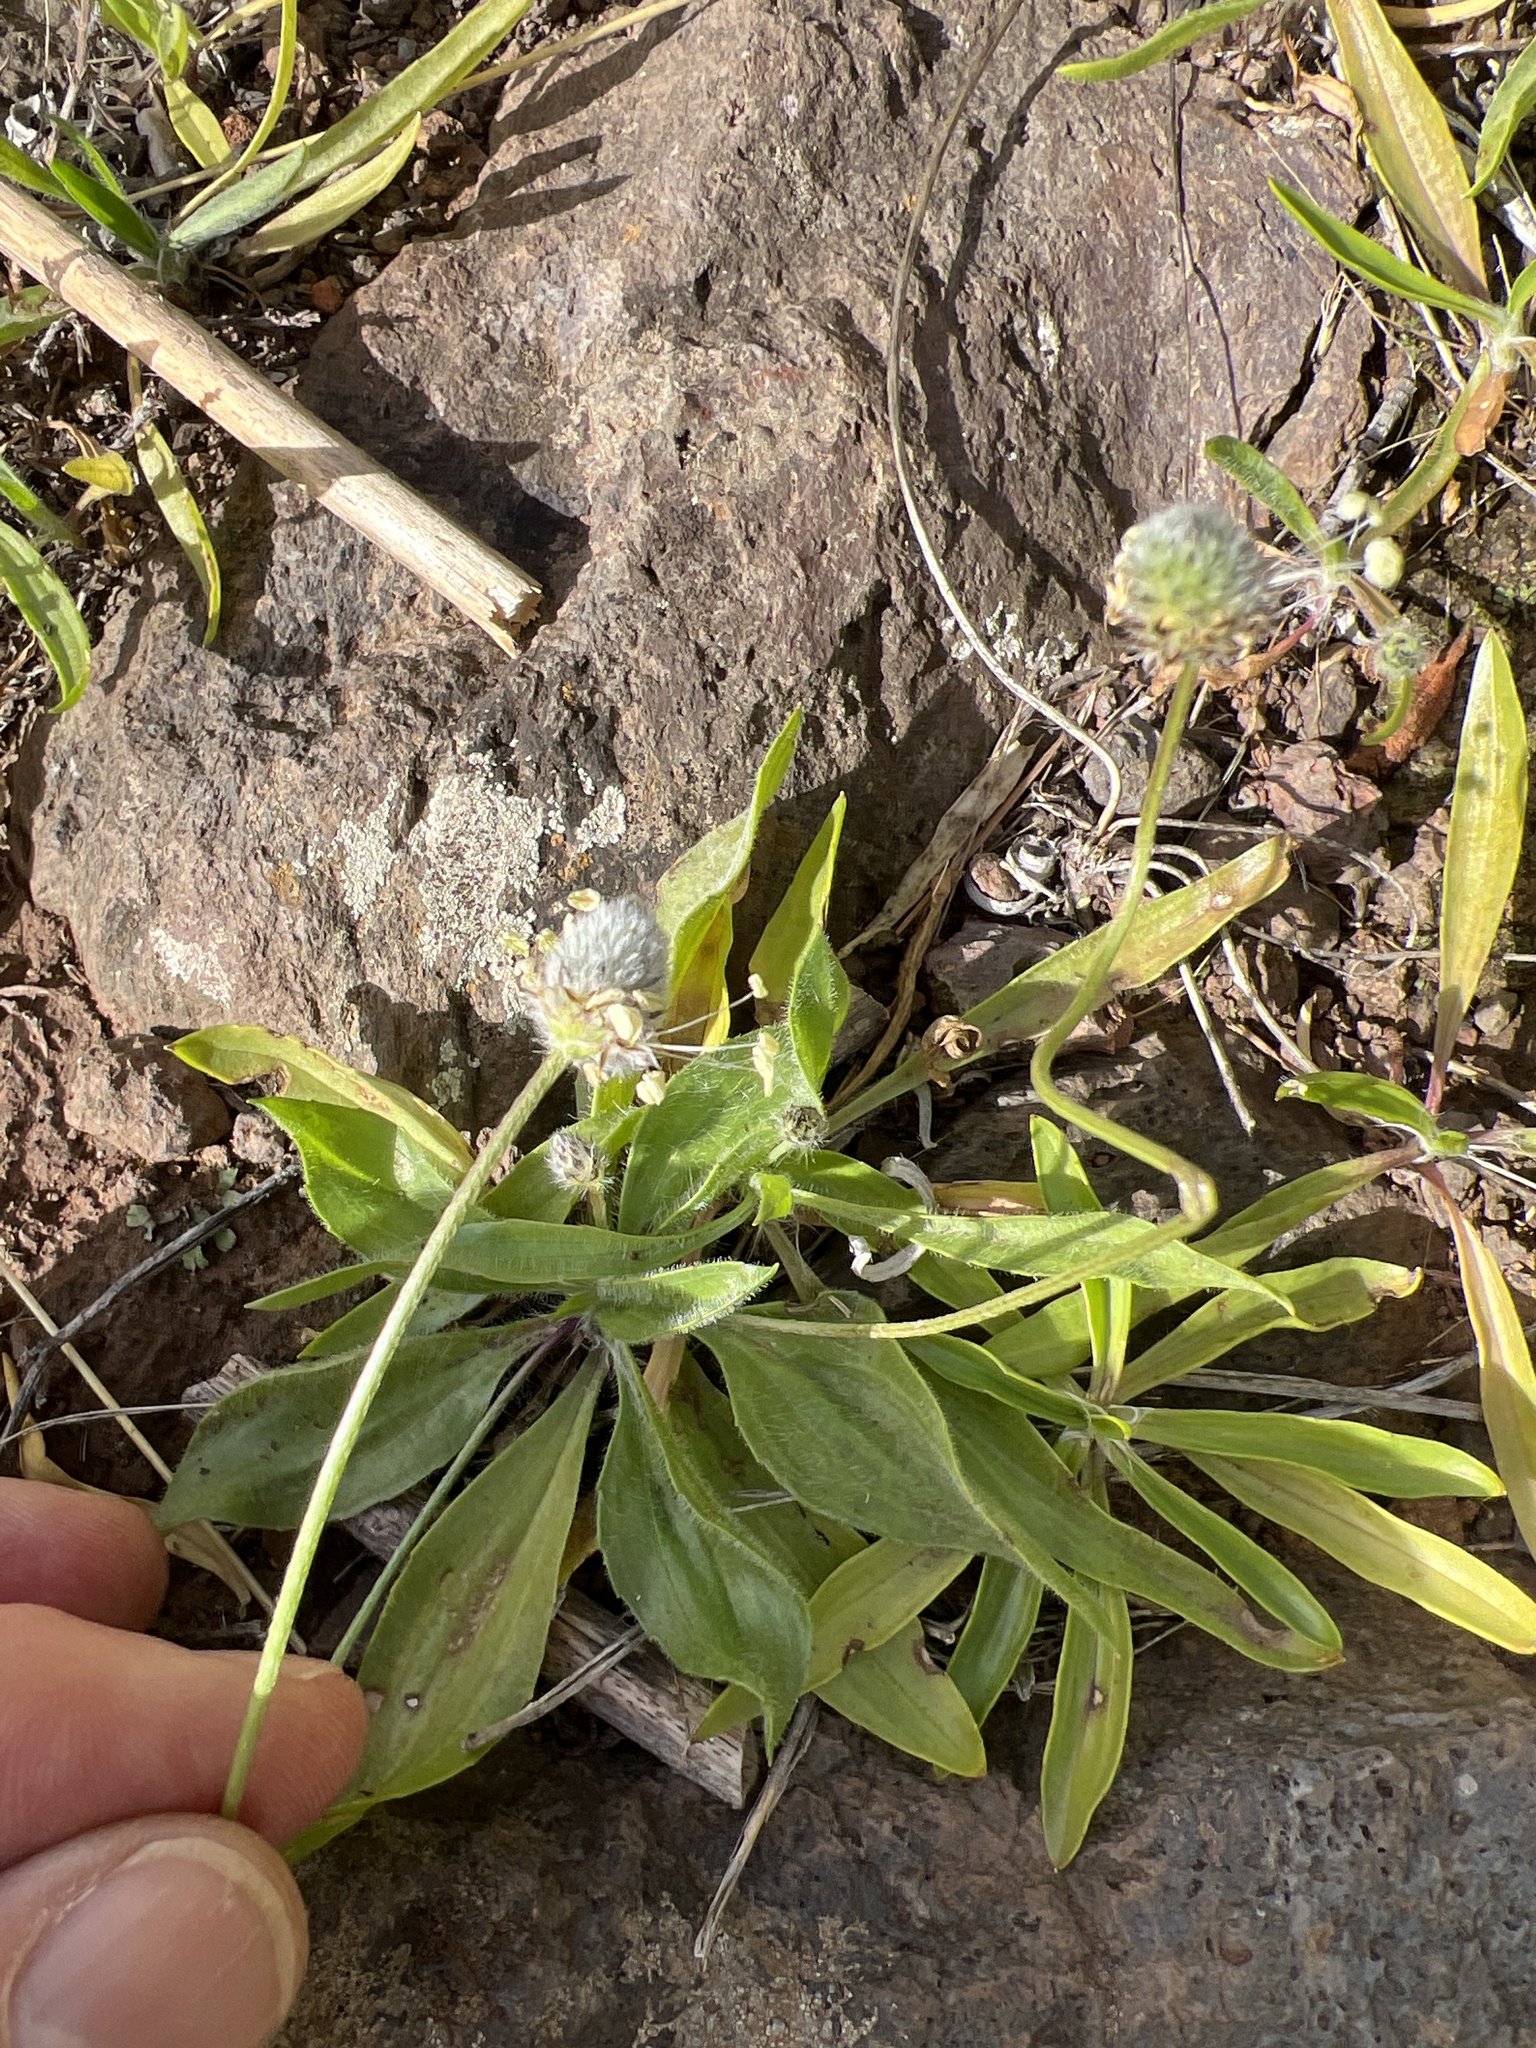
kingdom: Plantae
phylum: Tracheophyta
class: Magnoliopsida
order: Lamiales
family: Plantaginaceae
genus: Plantago
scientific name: Plantago lagopus
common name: Hare-foot plantain
